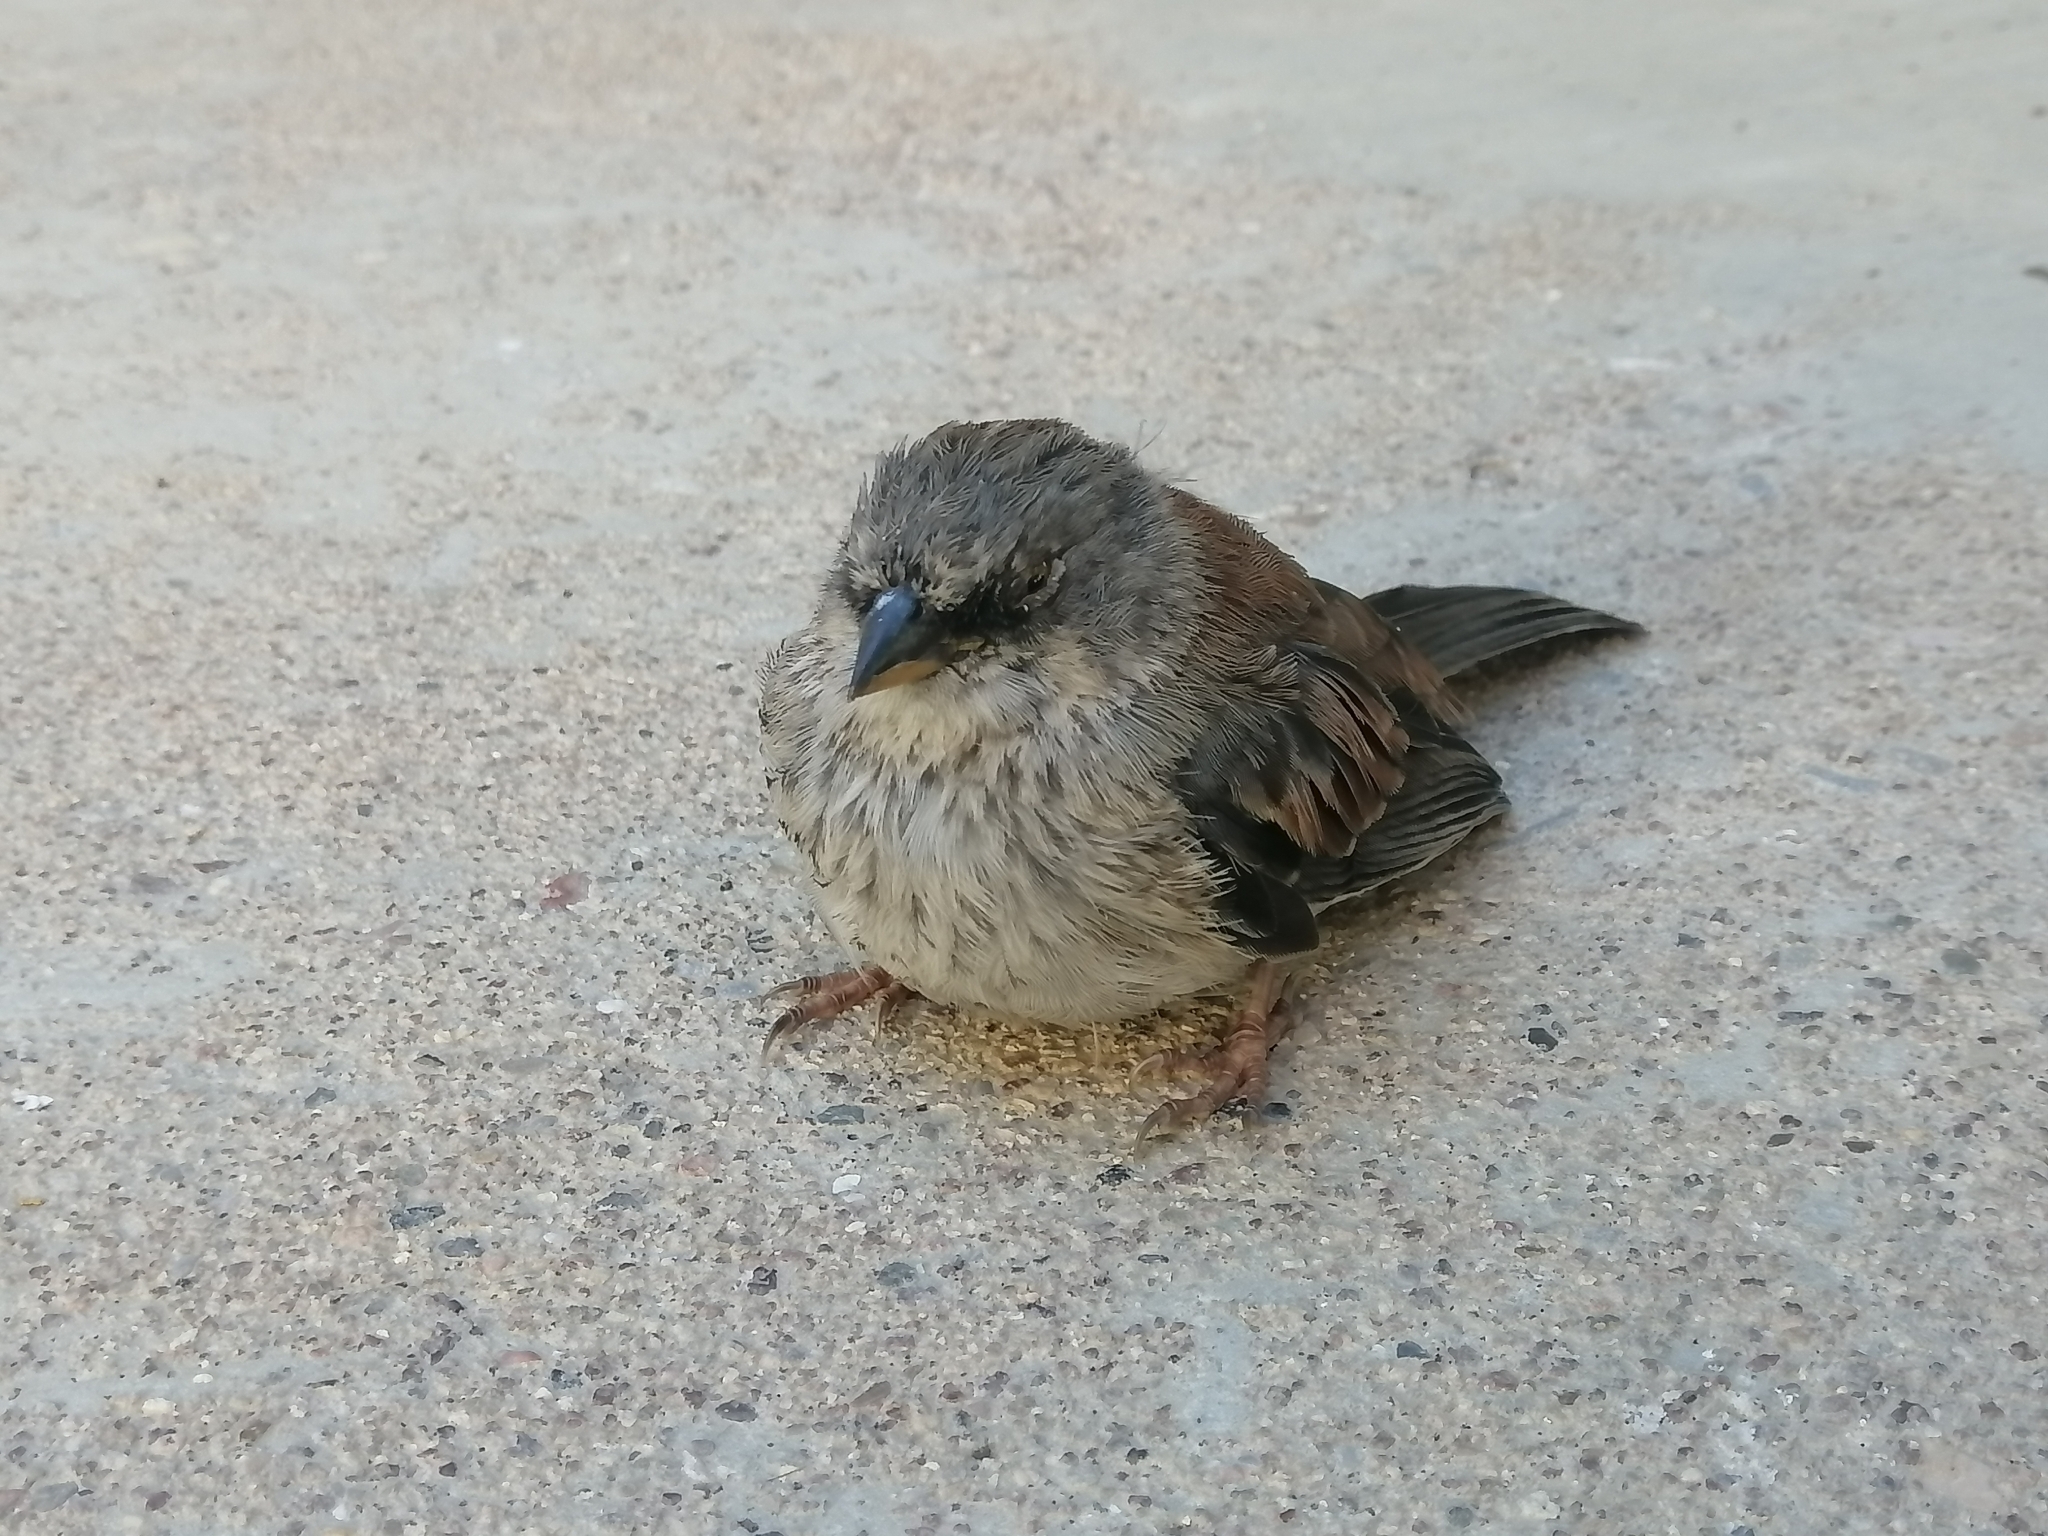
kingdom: Animalia
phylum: Chordata
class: Aves
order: Passeriformes
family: Passerellidae
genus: Junco
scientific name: Junco phaeonotus
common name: Yellow-eyed junco
